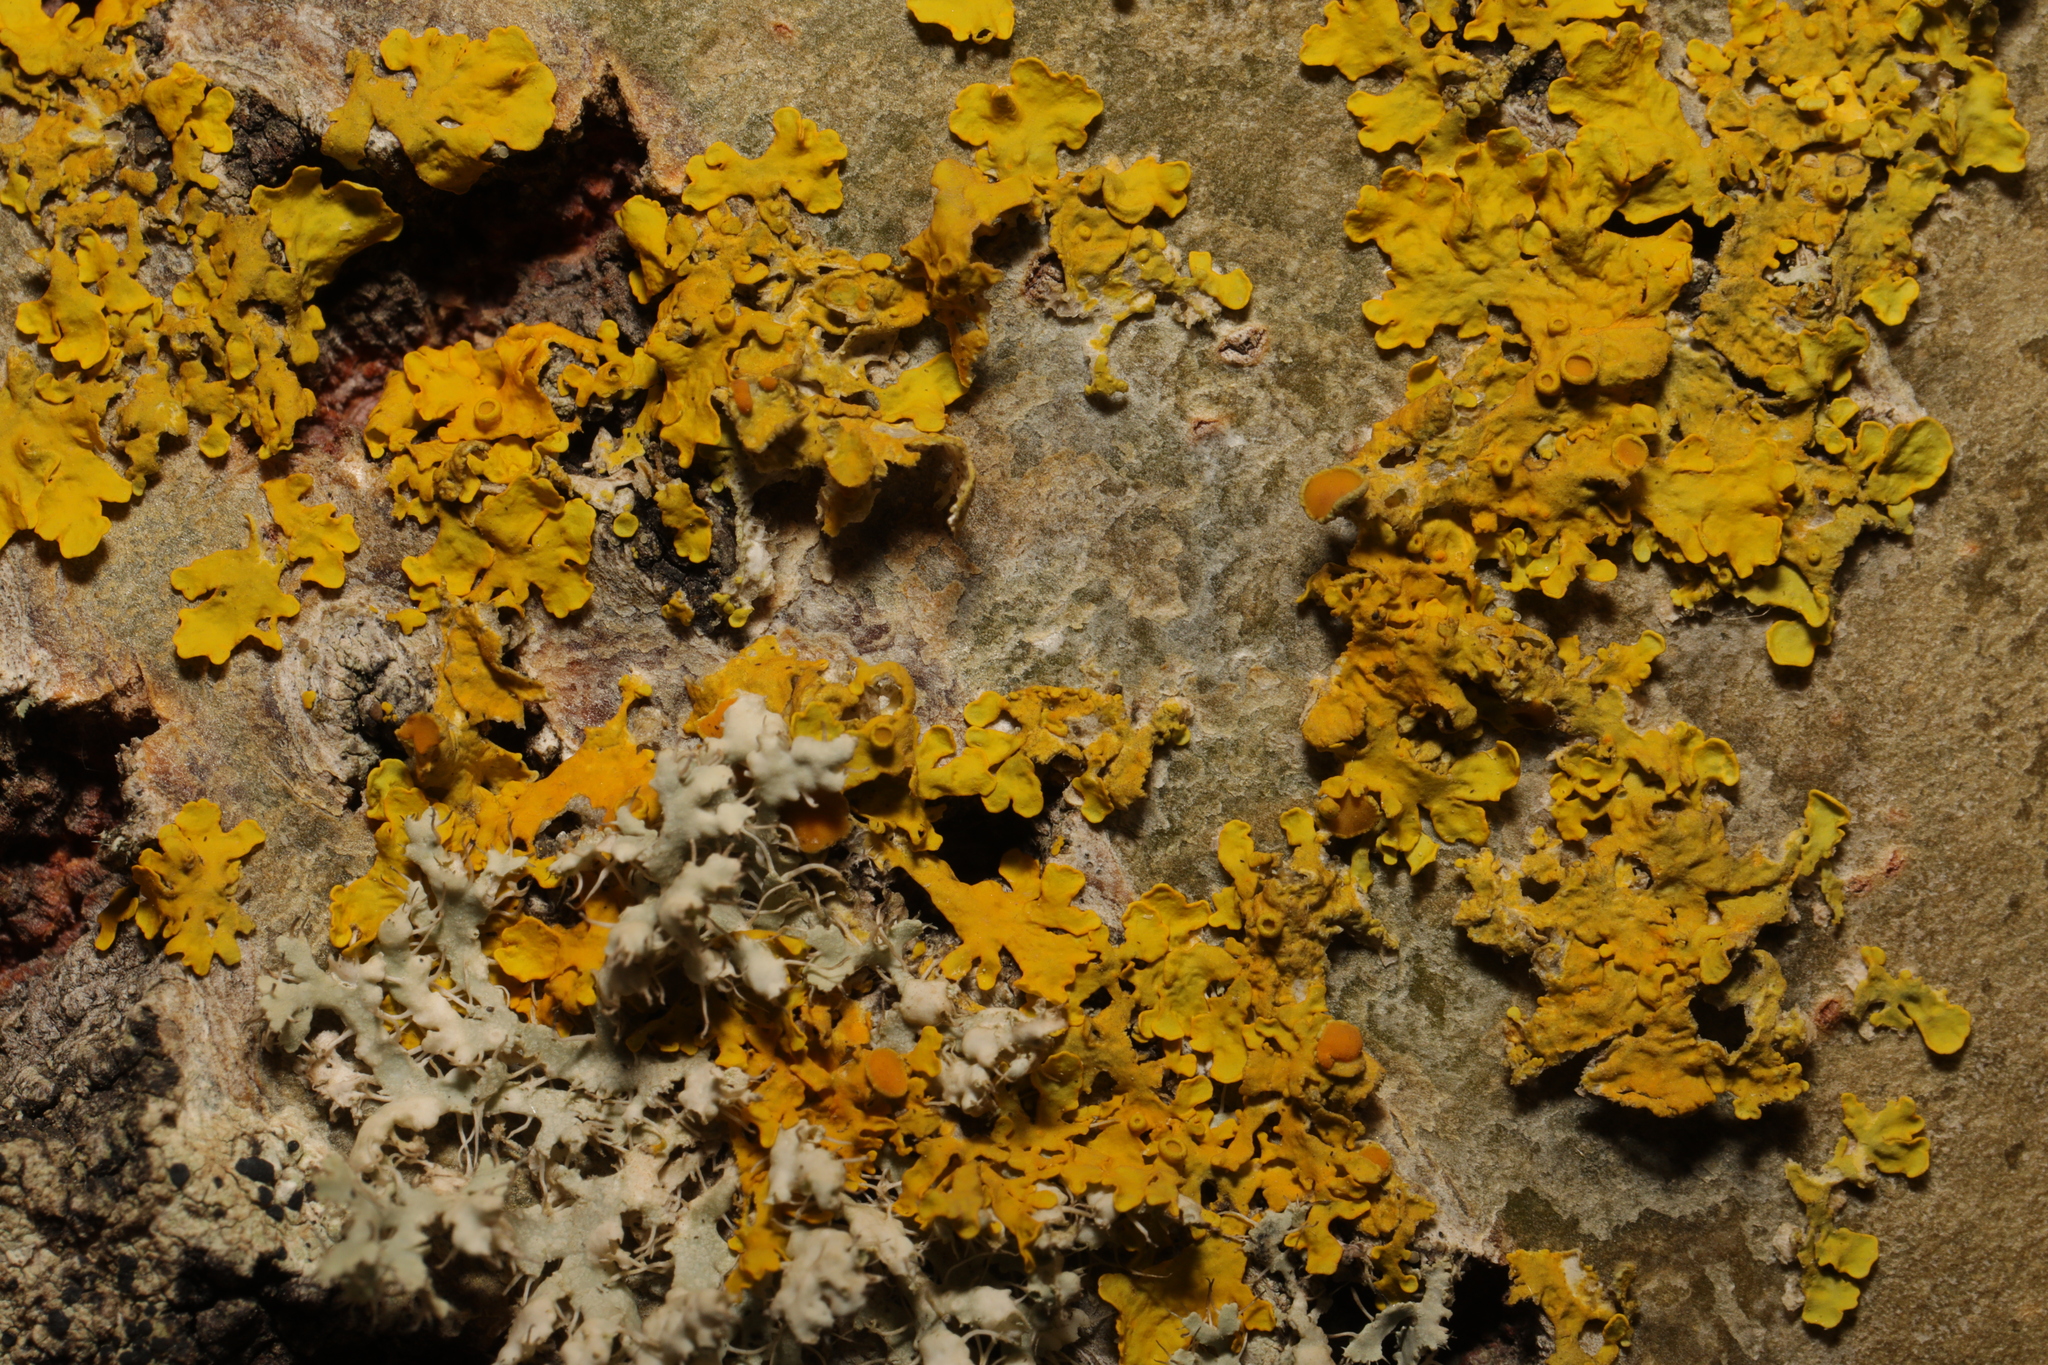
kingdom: Fungi
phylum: Ascomycota
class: Lecanoromycetes
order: Teloschistales
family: Teloschistaceae
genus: Xanthoria
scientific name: Xanthoria parietina
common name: Common orange lichen
